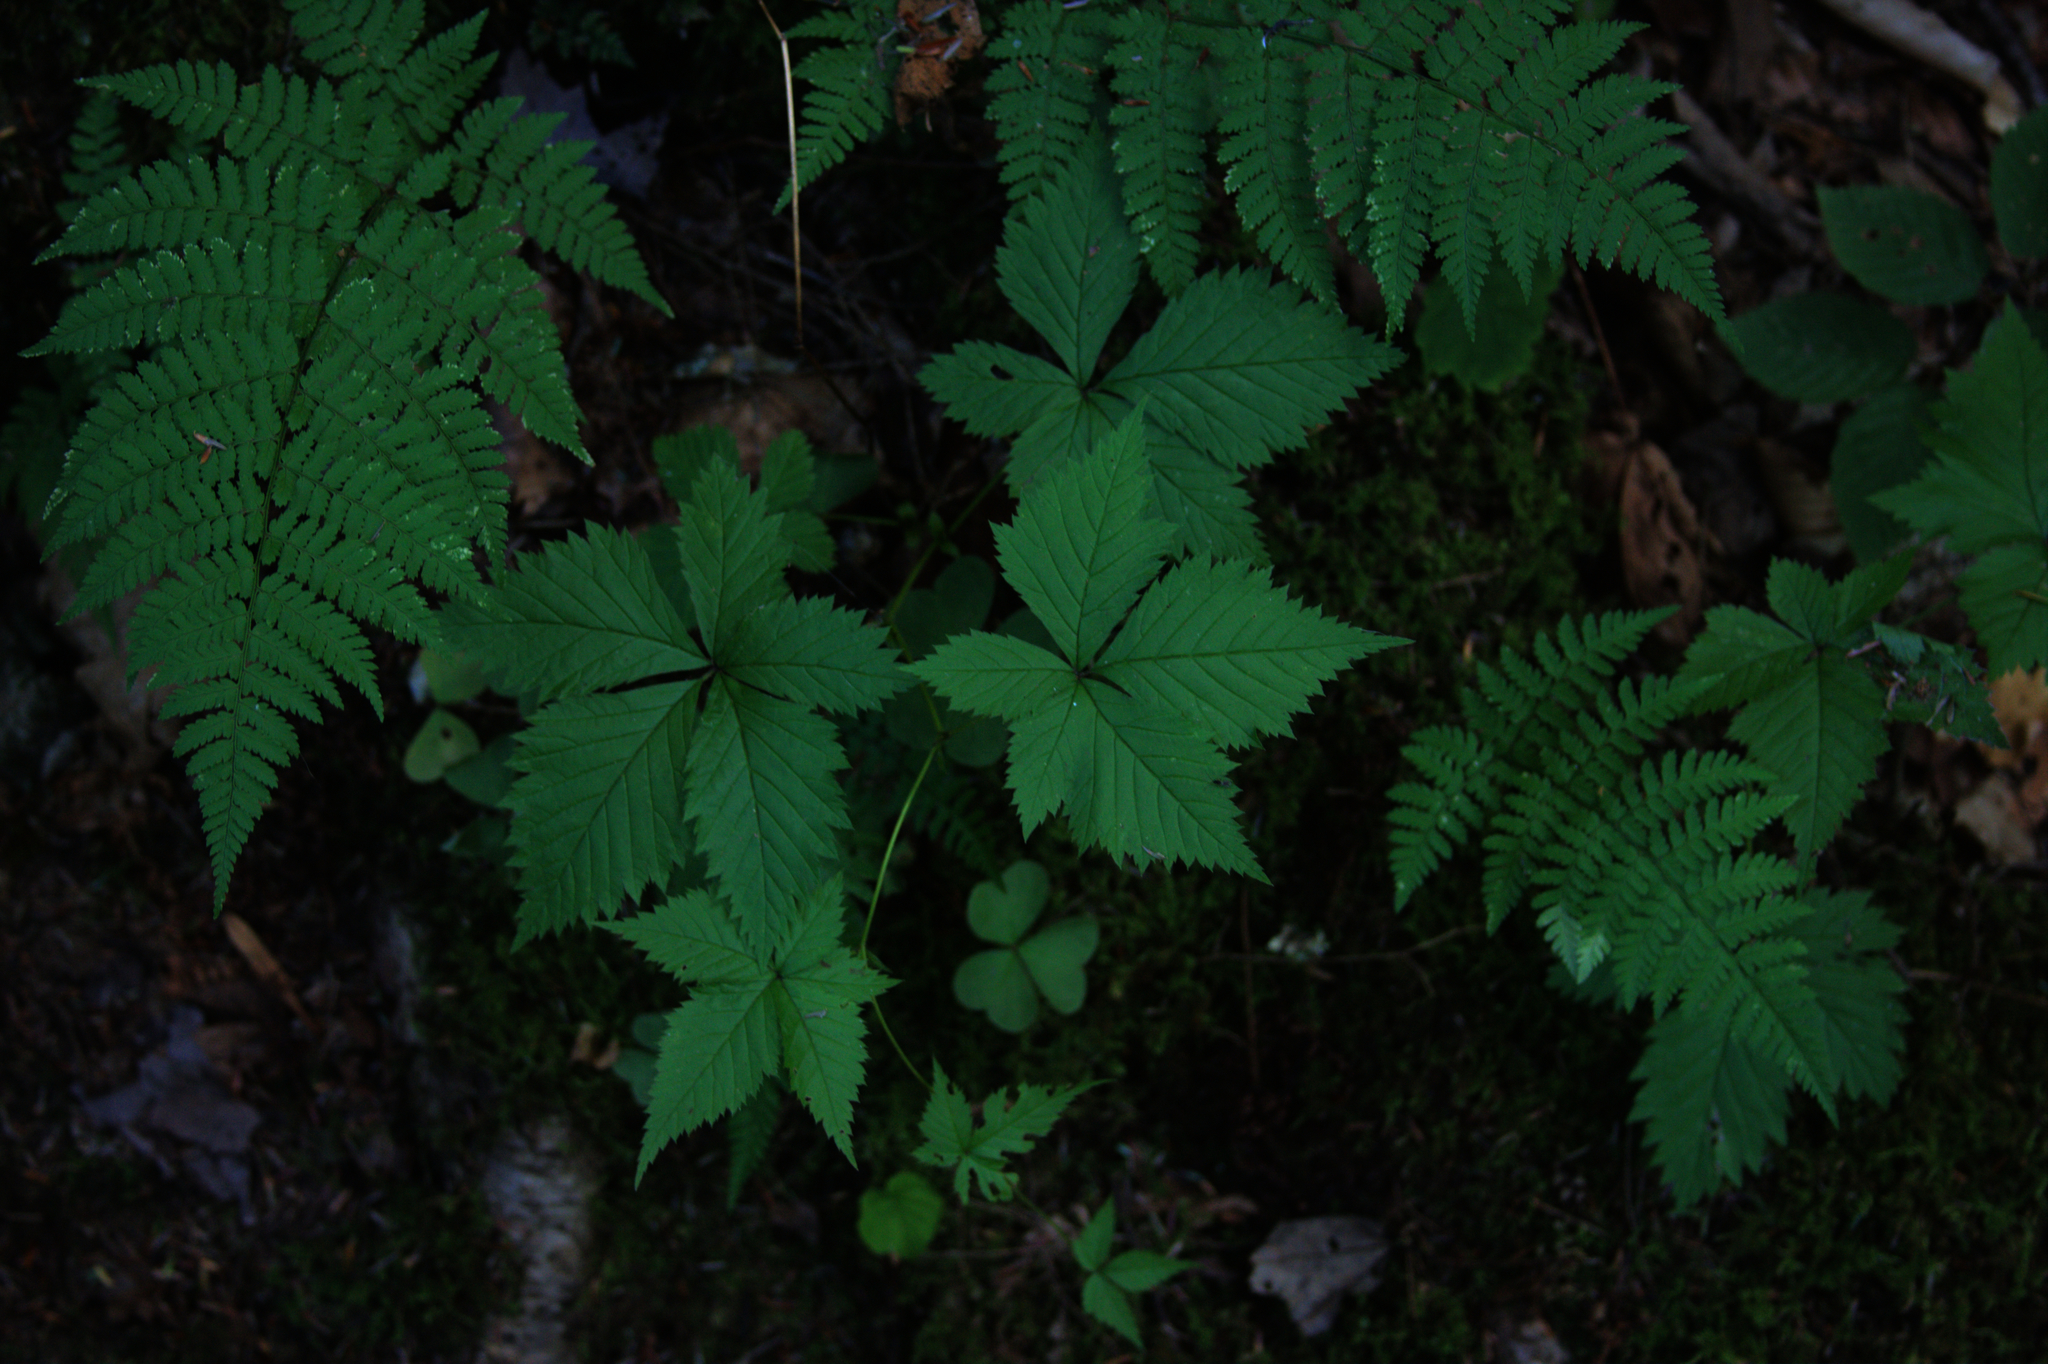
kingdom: Plantae
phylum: Tracheophyta
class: Magnoliopsida
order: Rosales
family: Rosaceae
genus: Rubus
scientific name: Rubus pubescens
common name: Dwarf raspberry
